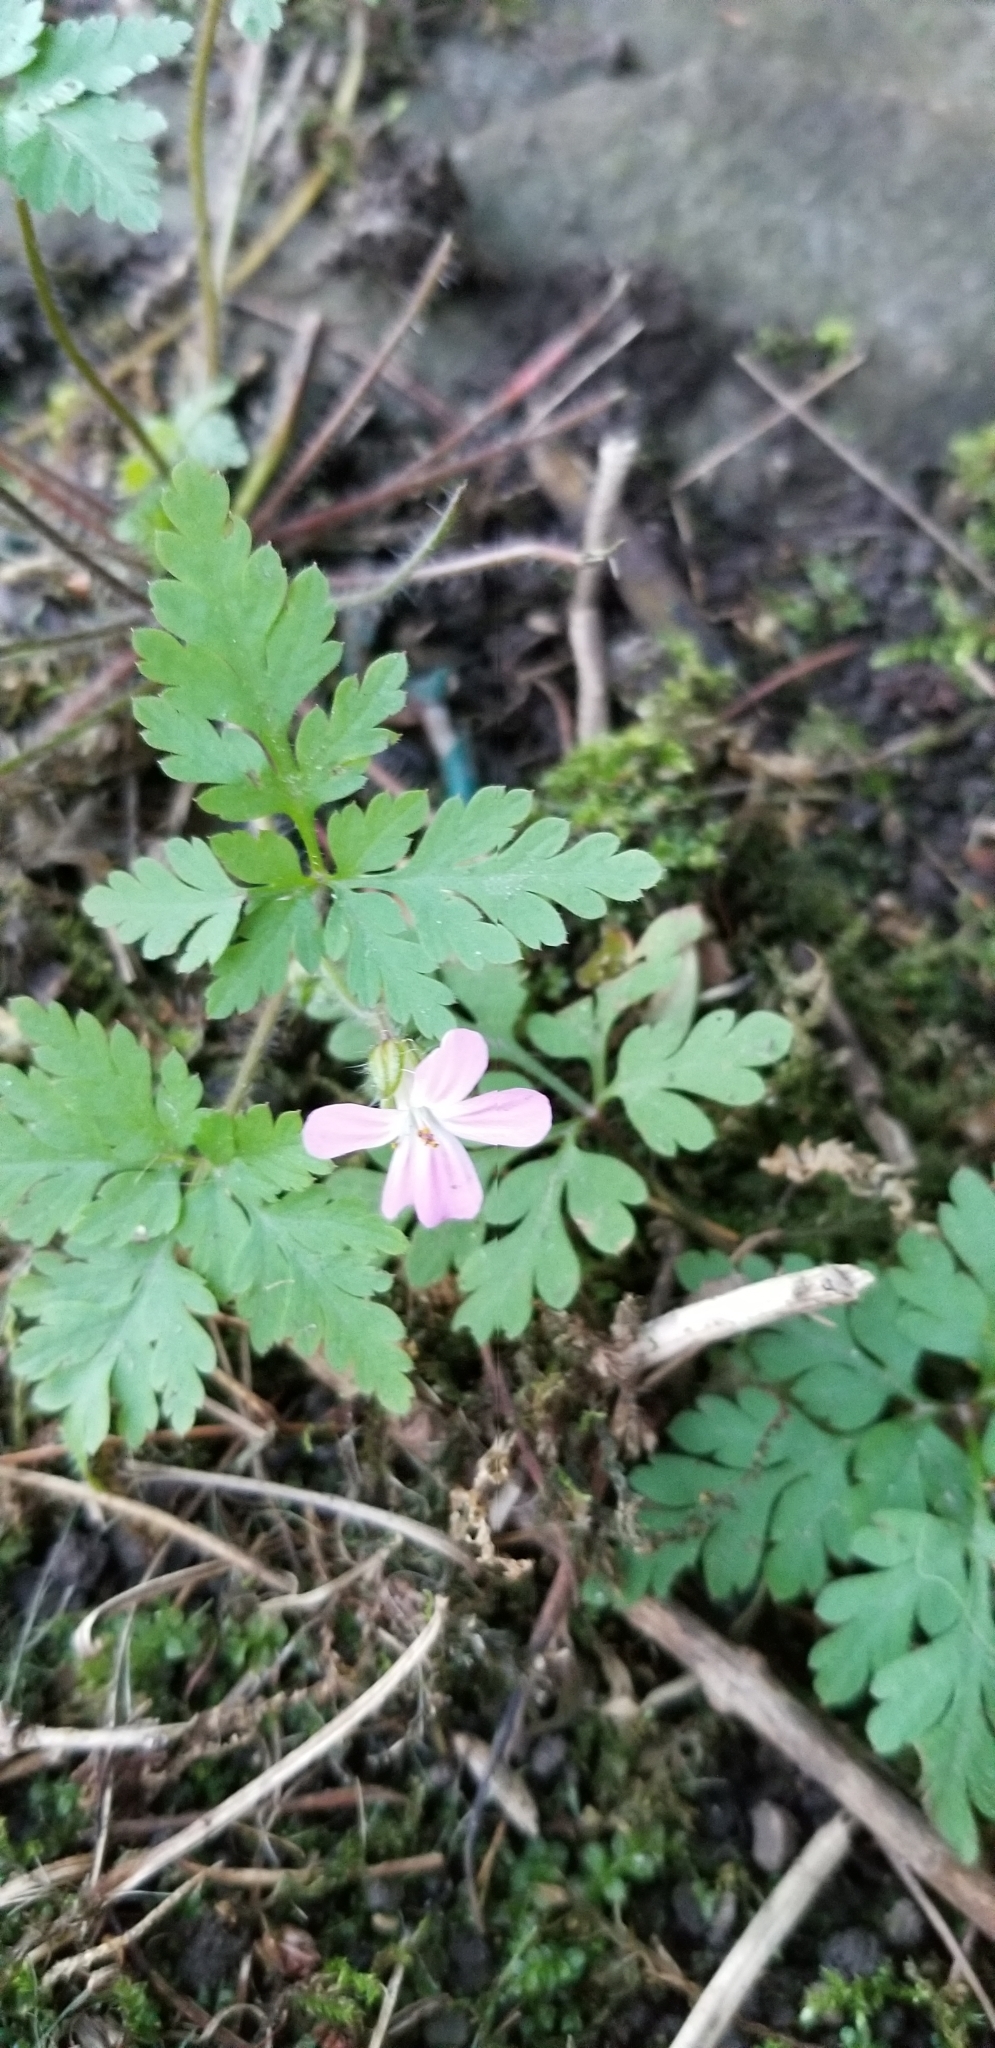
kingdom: Plantae
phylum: Tracheophyta
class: Magnoliopsida
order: Geraniales
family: Geraniaceae
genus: Geranium
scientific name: Geranium robertianum
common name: Herb-robert
